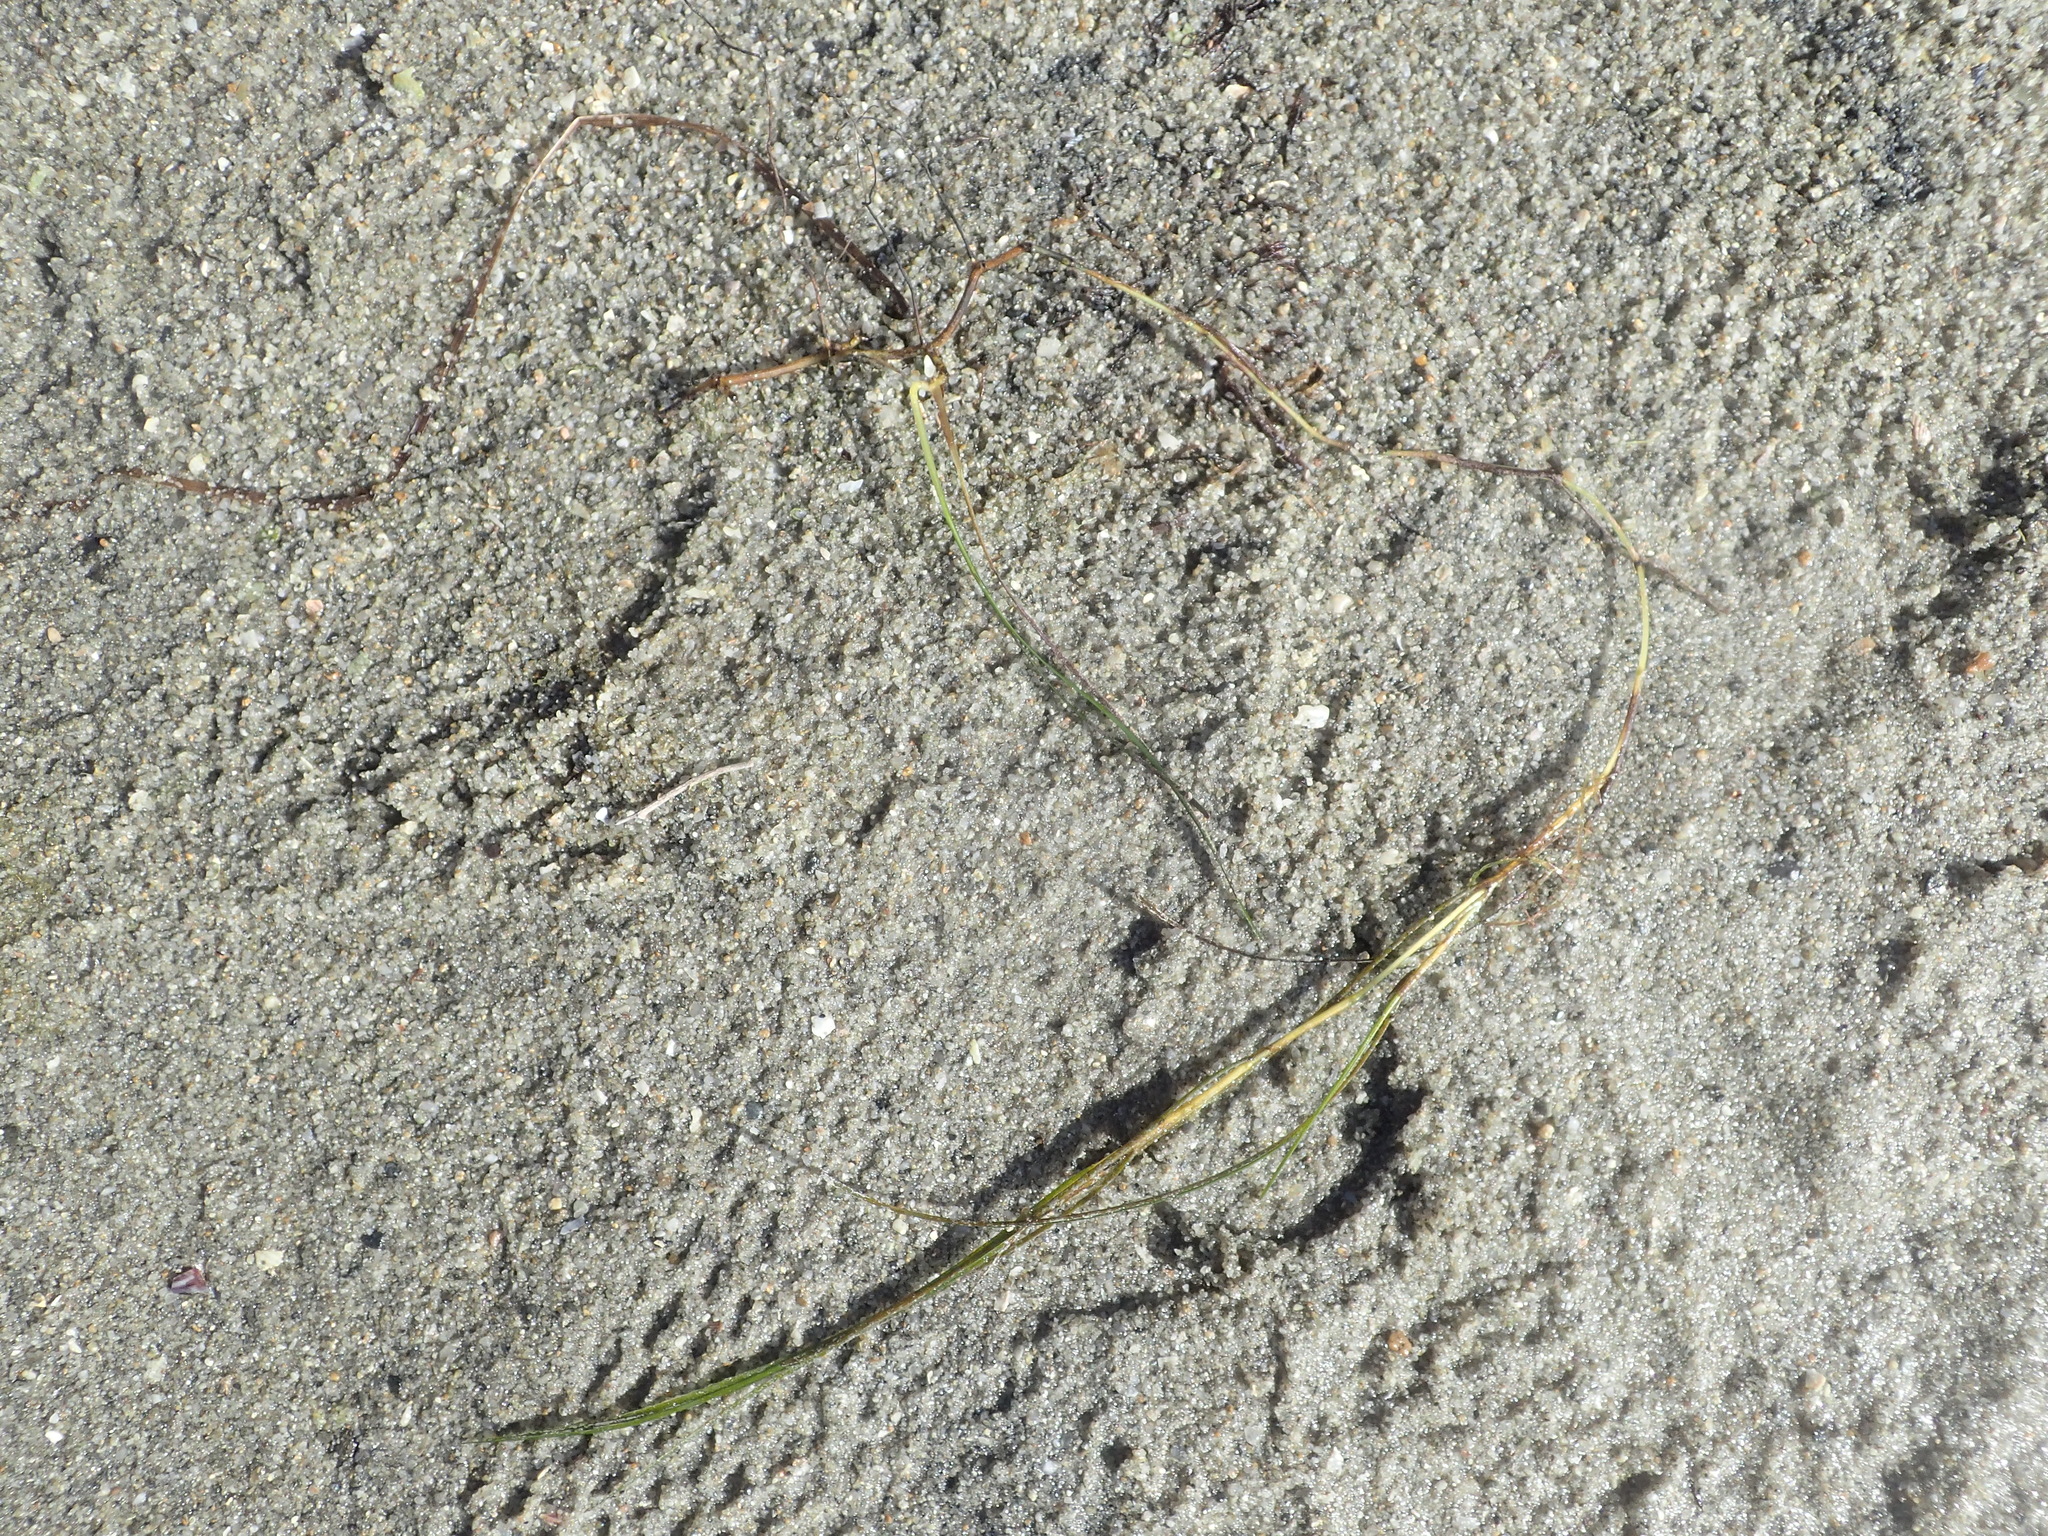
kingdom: Plantae
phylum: Tracheophyta
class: Liliopsida
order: Alismatales
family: Ruppiaceae
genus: Ruppia
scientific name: Ruppia cirrhosa
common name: Spiral tasselweed
